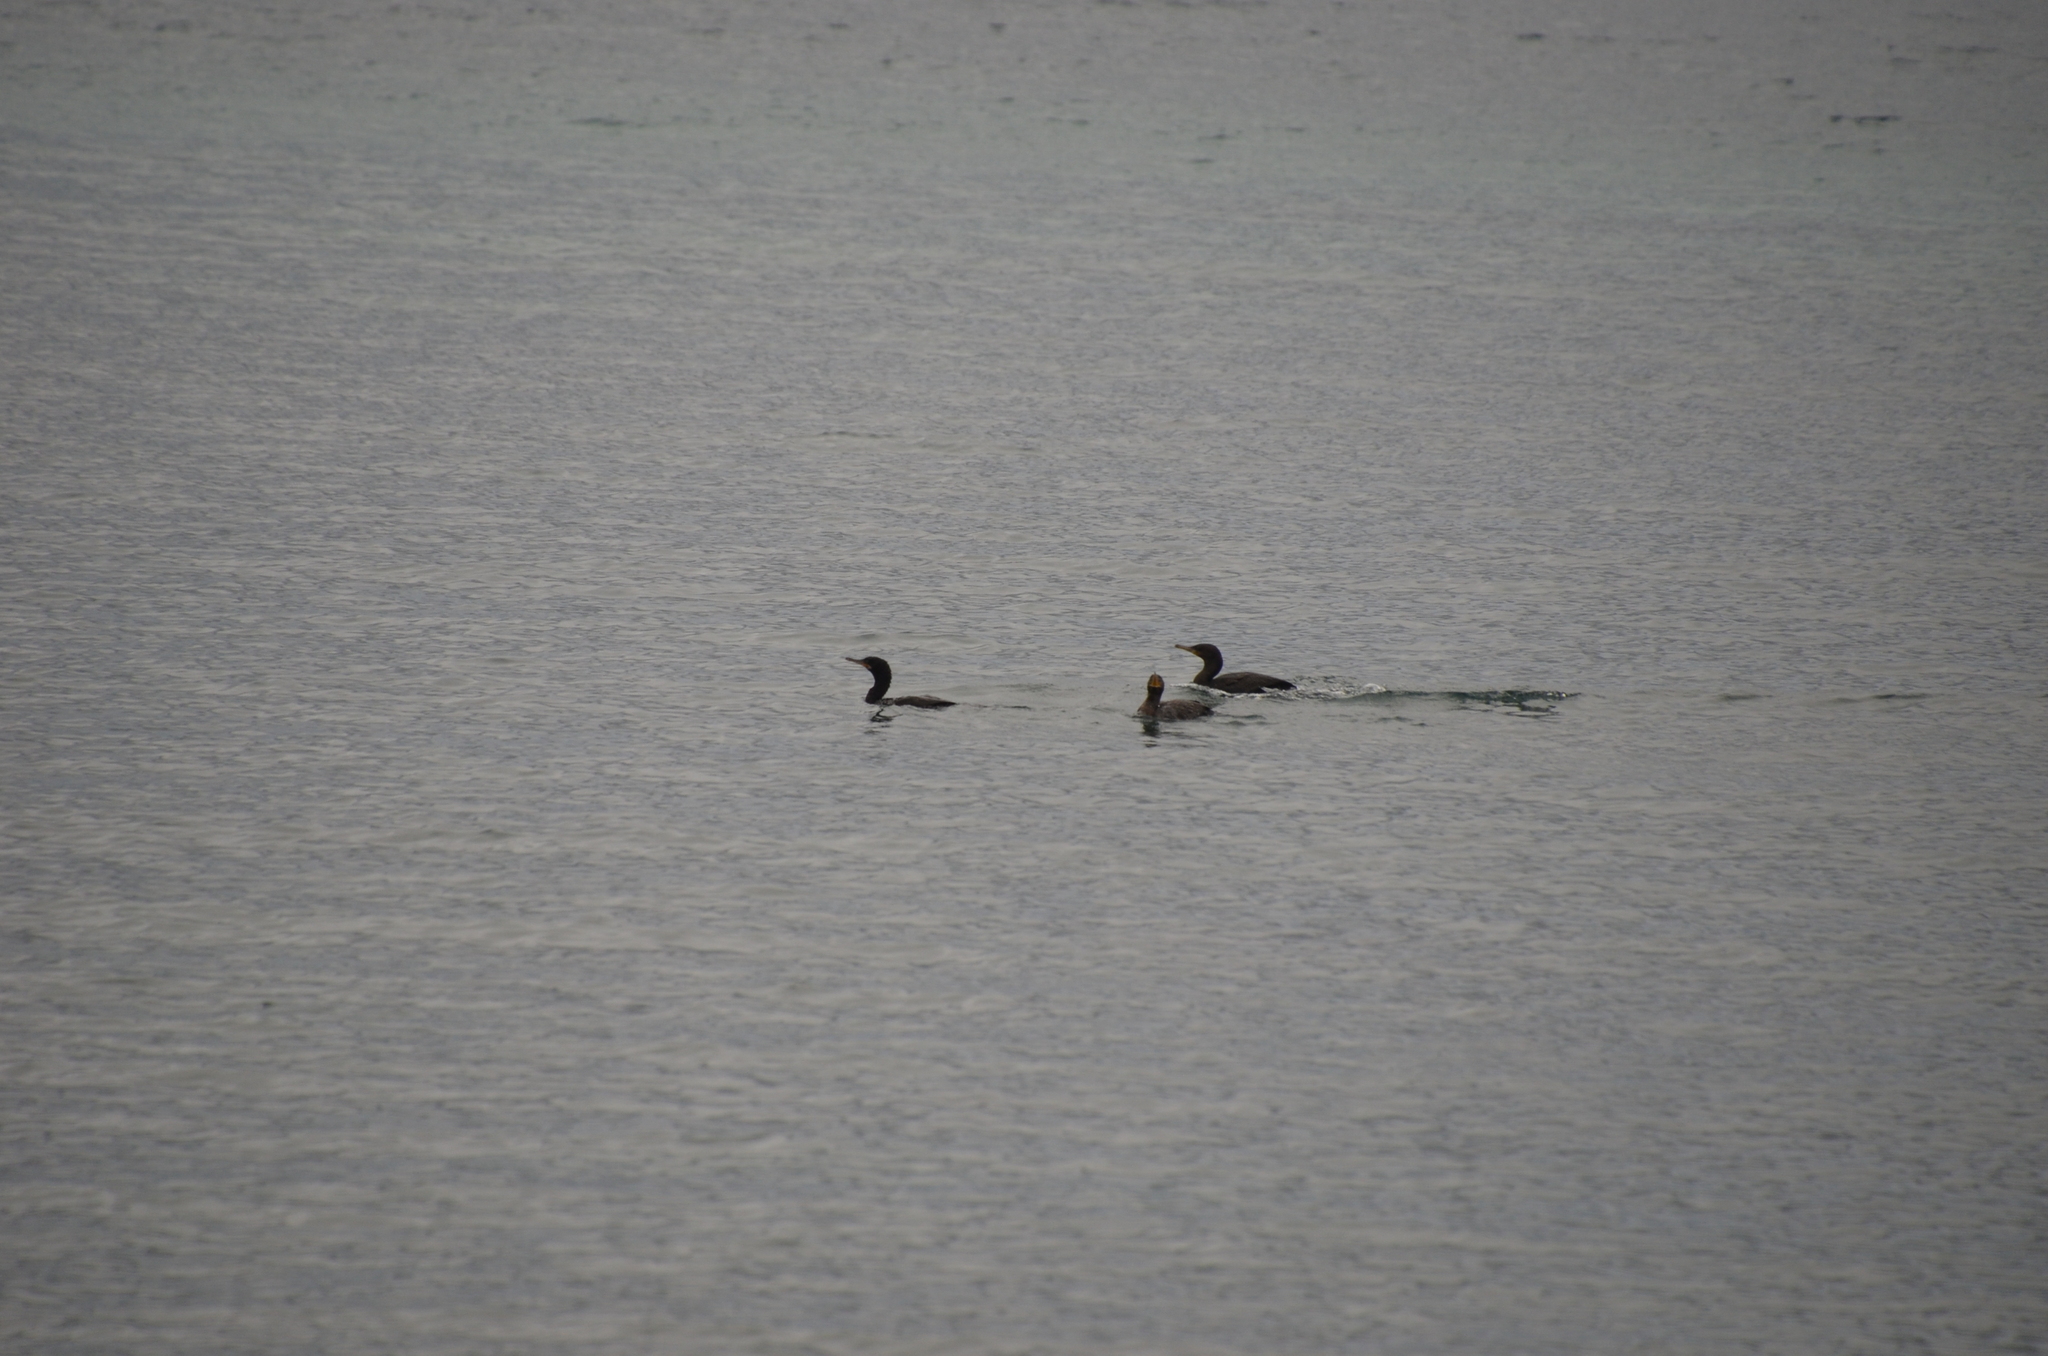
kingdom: Animalia
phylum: Chordata
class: Aves
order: Suliformes
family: Phalacrocoracidae
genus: Phalacrocorax
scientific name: Phalacrocorax brasilianus
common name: Neotropic cormorant
